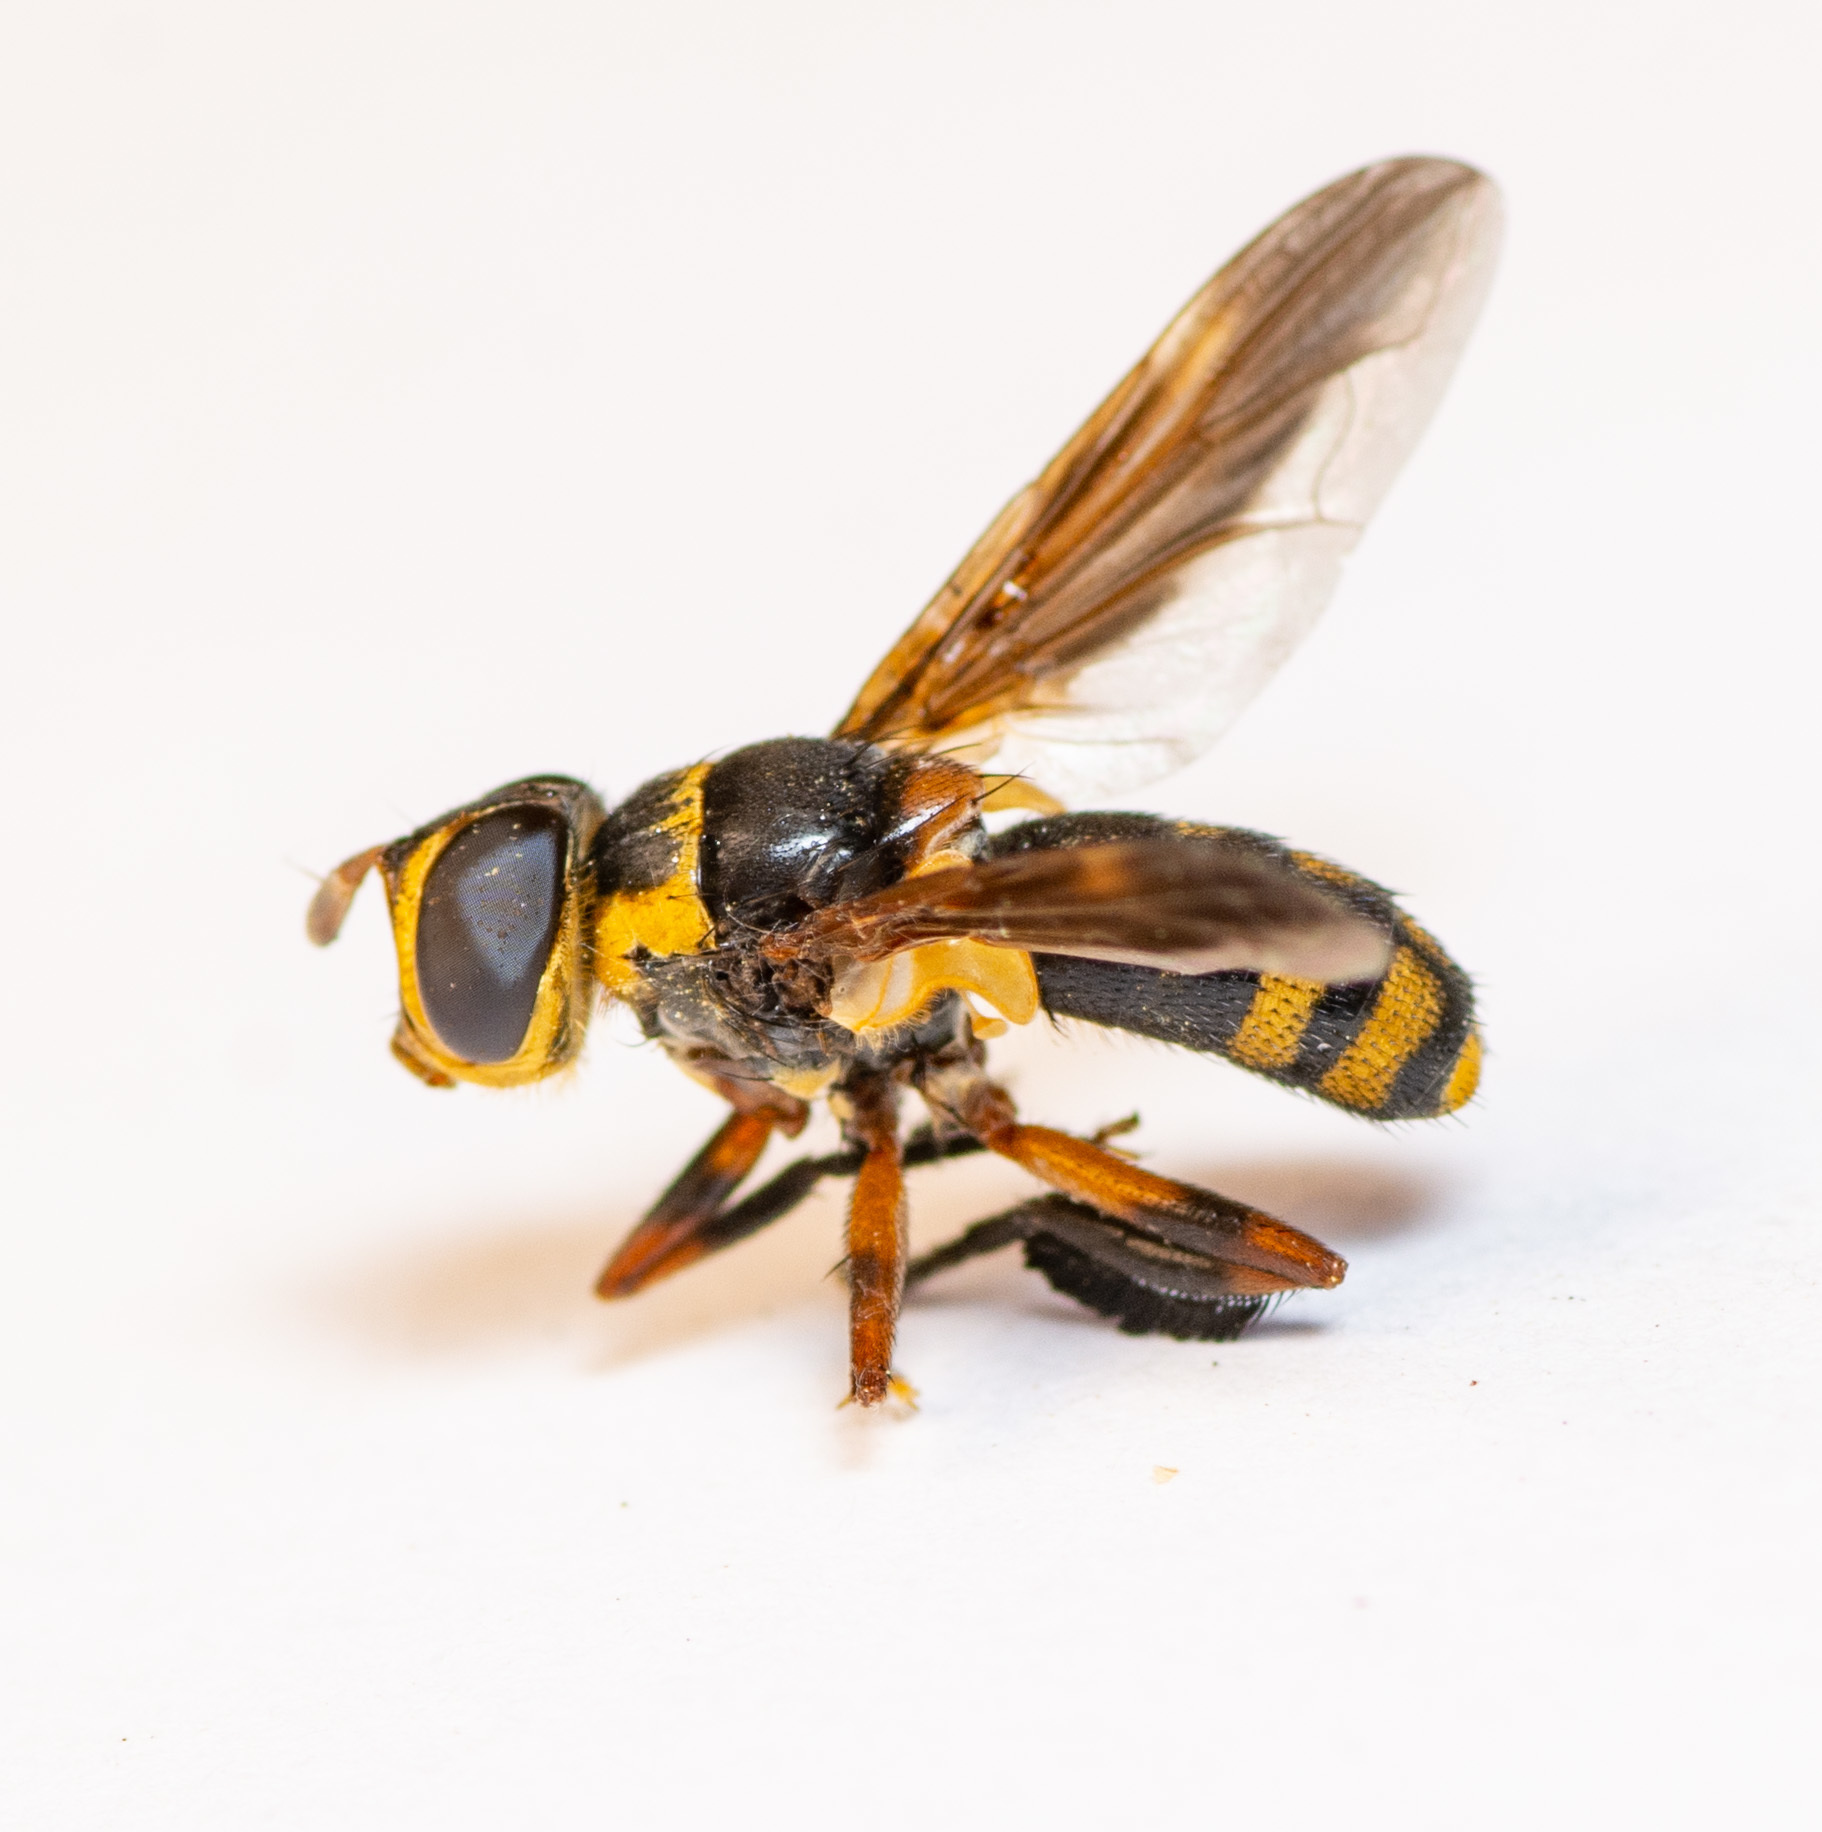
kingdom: Animalia
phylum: Arthropoda
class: Insecta
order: Diptera
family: Tachinidae
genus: Trichopoda
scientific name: Trichopoda plumipes
